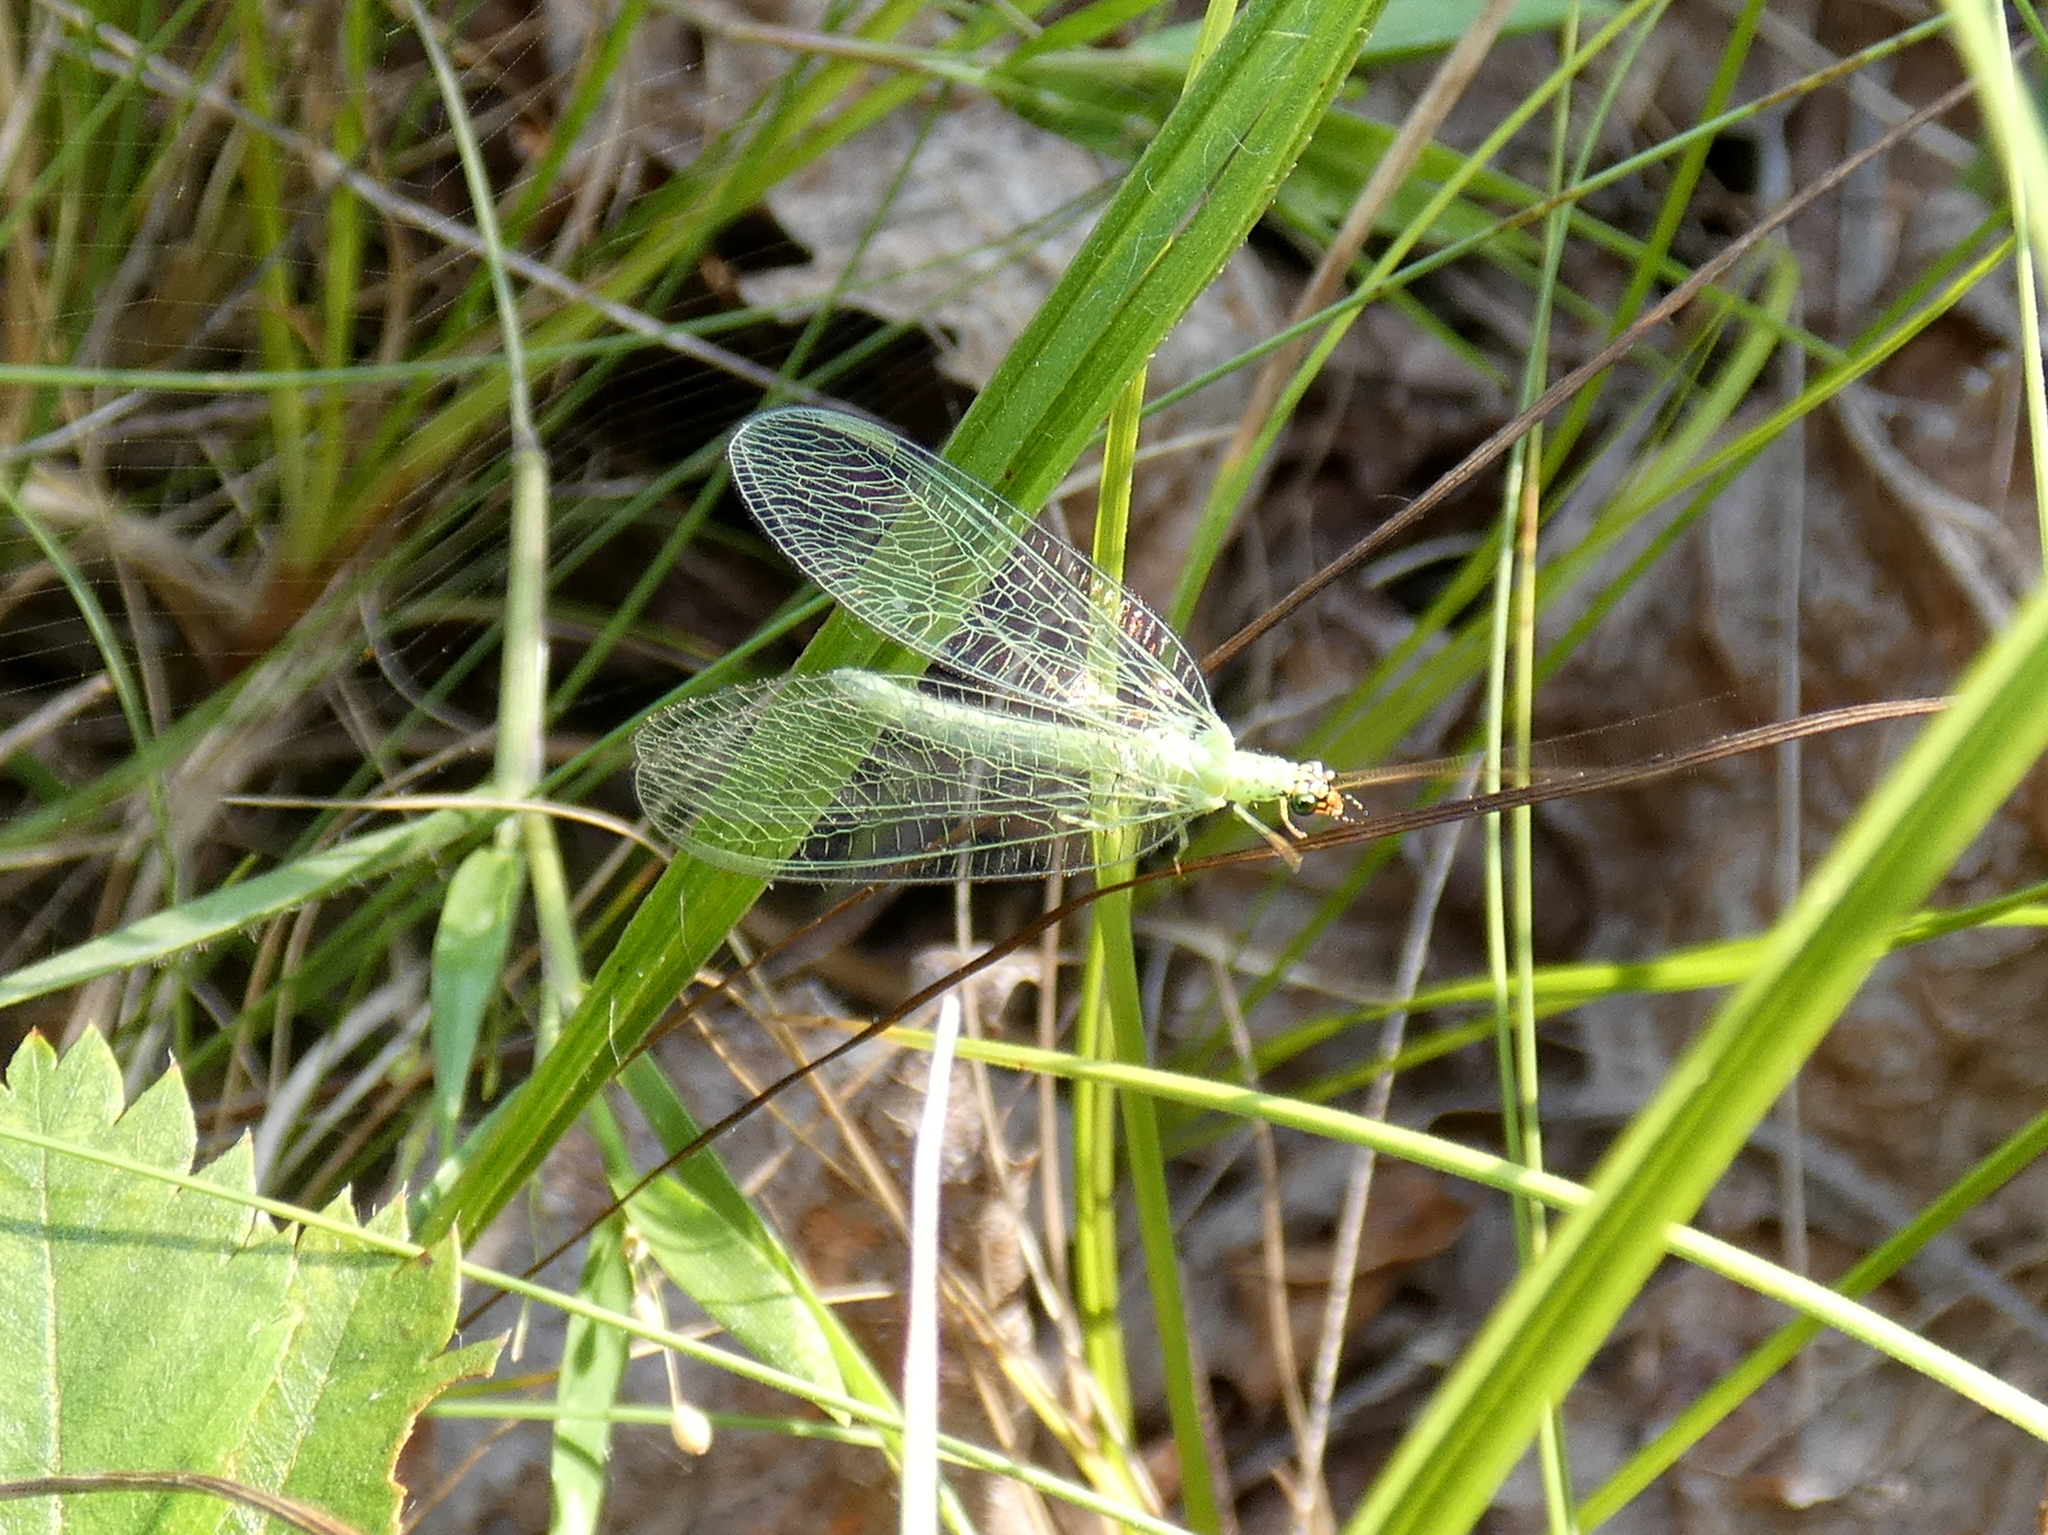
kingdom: Animalia
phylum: Arthropoda
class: Insecta
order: Neuroptera
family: Chrysopidae
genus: Chrysopa
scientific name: Chrysopa oculata
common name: Golden-eyed lacewing
